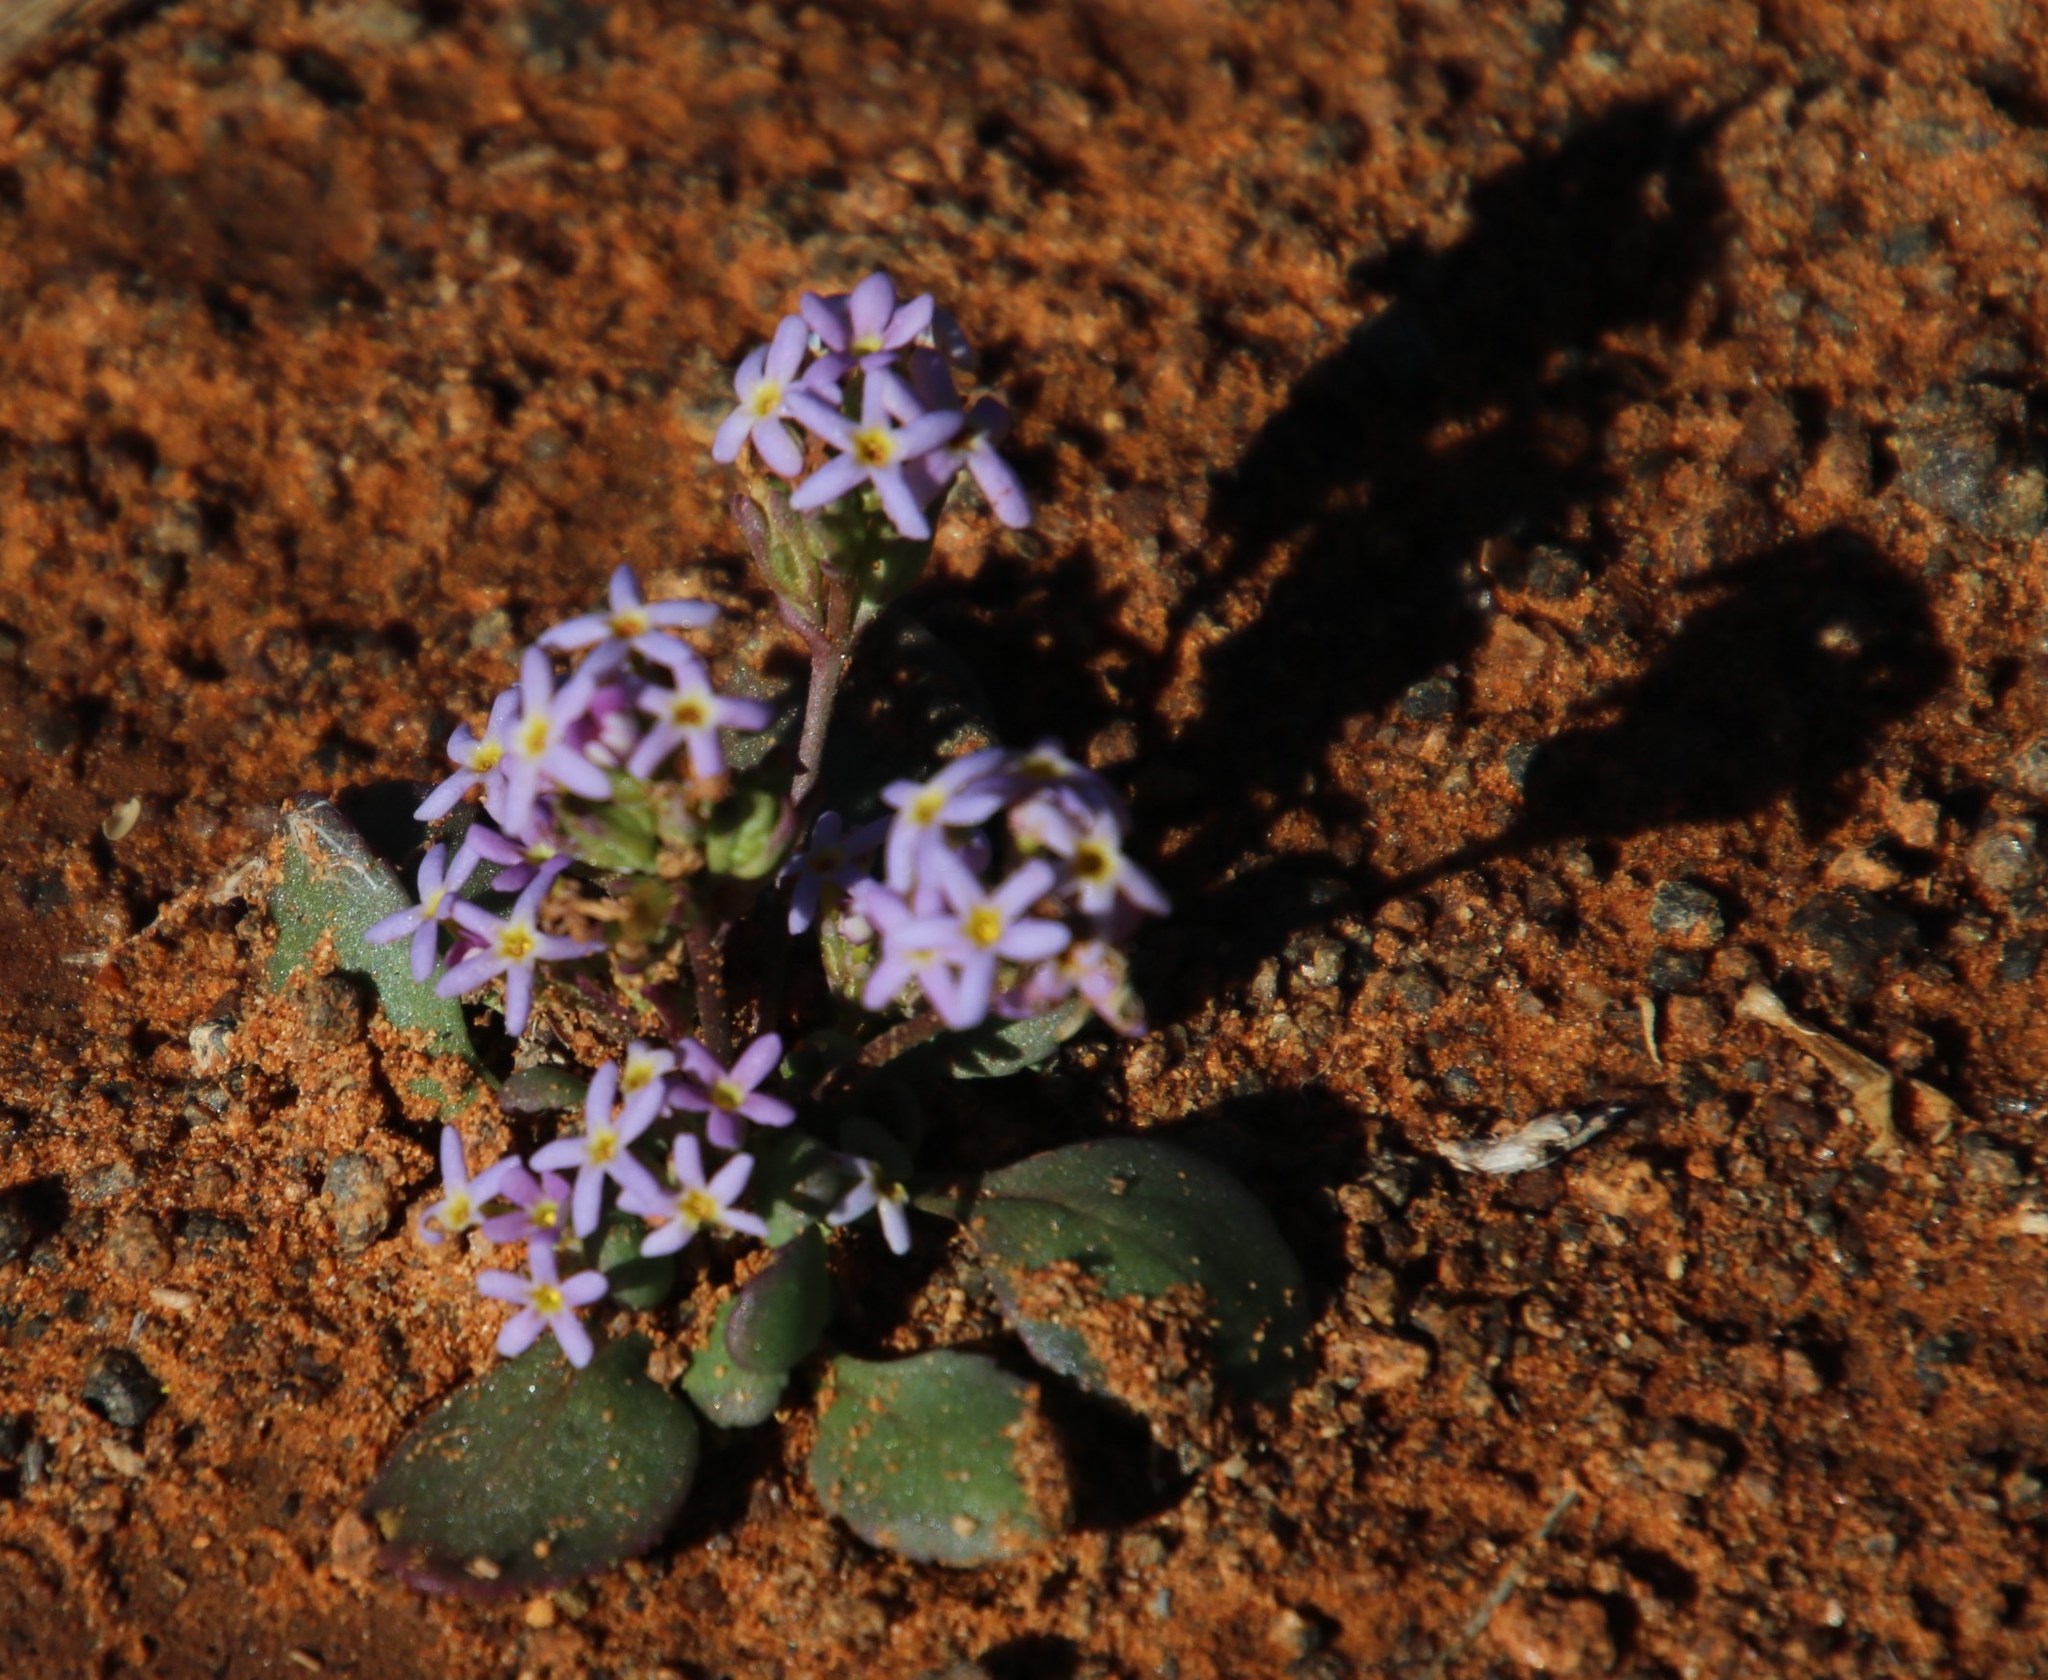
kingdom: Plantae
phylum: Tracheophyta
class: Magnoliopsida
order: Lamiales
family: Scrophulariaceae
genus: Manulea
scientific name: Manulea fragrans
